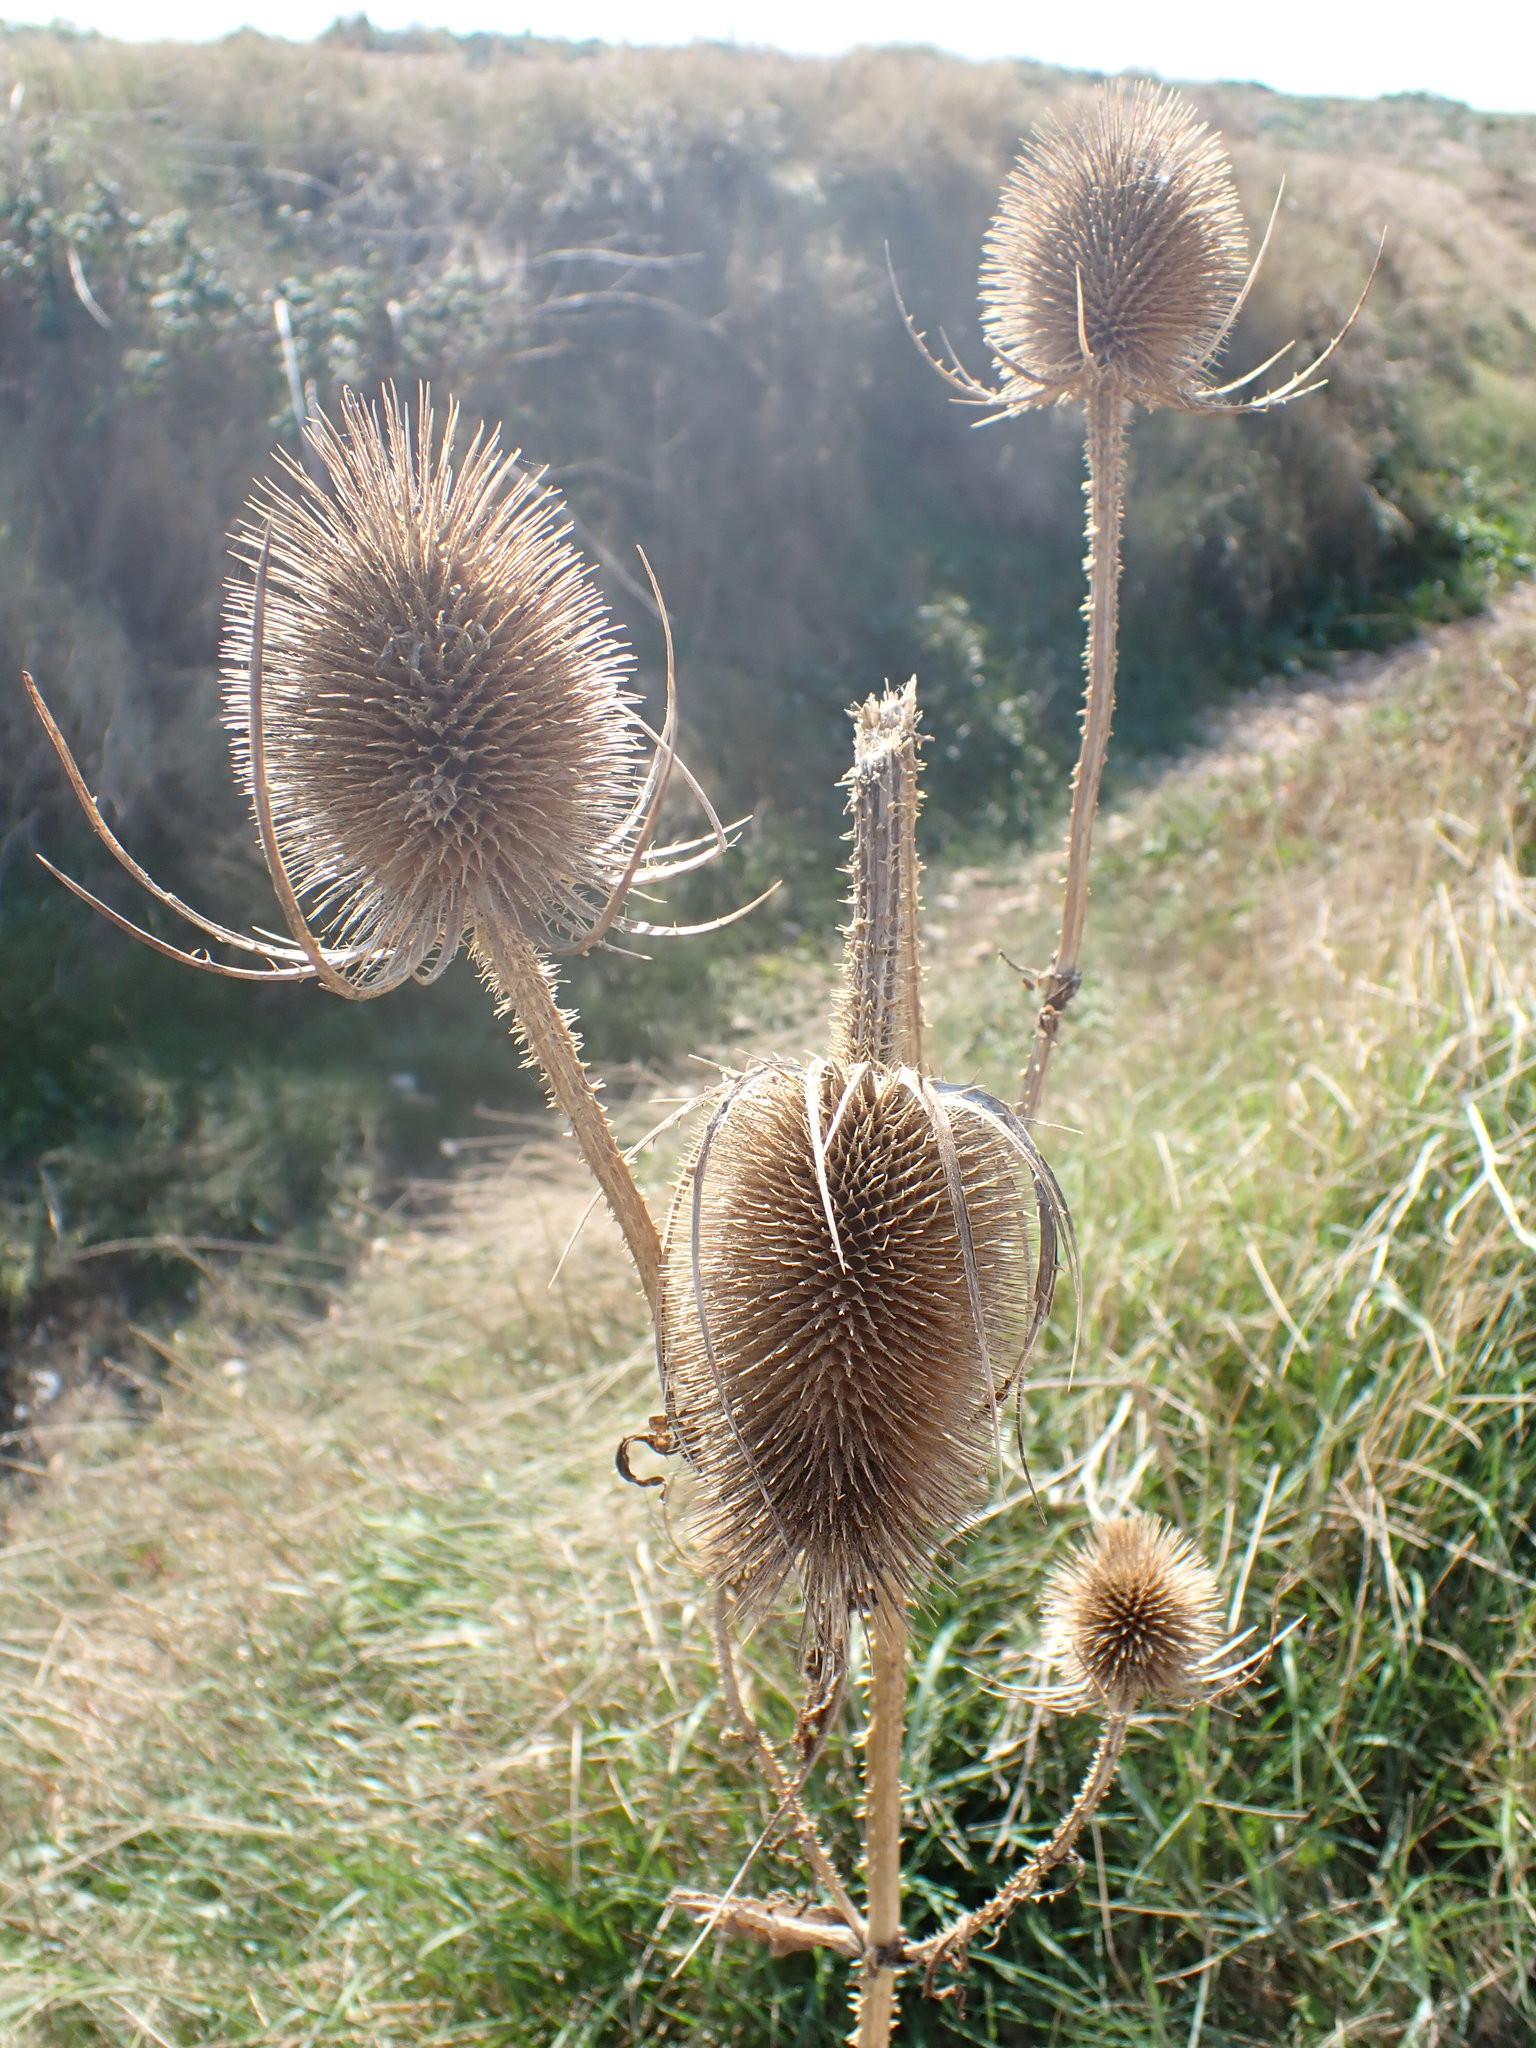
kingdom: Plantae
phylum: Tracheophyta
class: Magnoliopsida
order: Dipsacales
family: Caprifoliaceae
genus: Dipsacus
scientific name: Dipsacus fullonum
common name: Teasel
